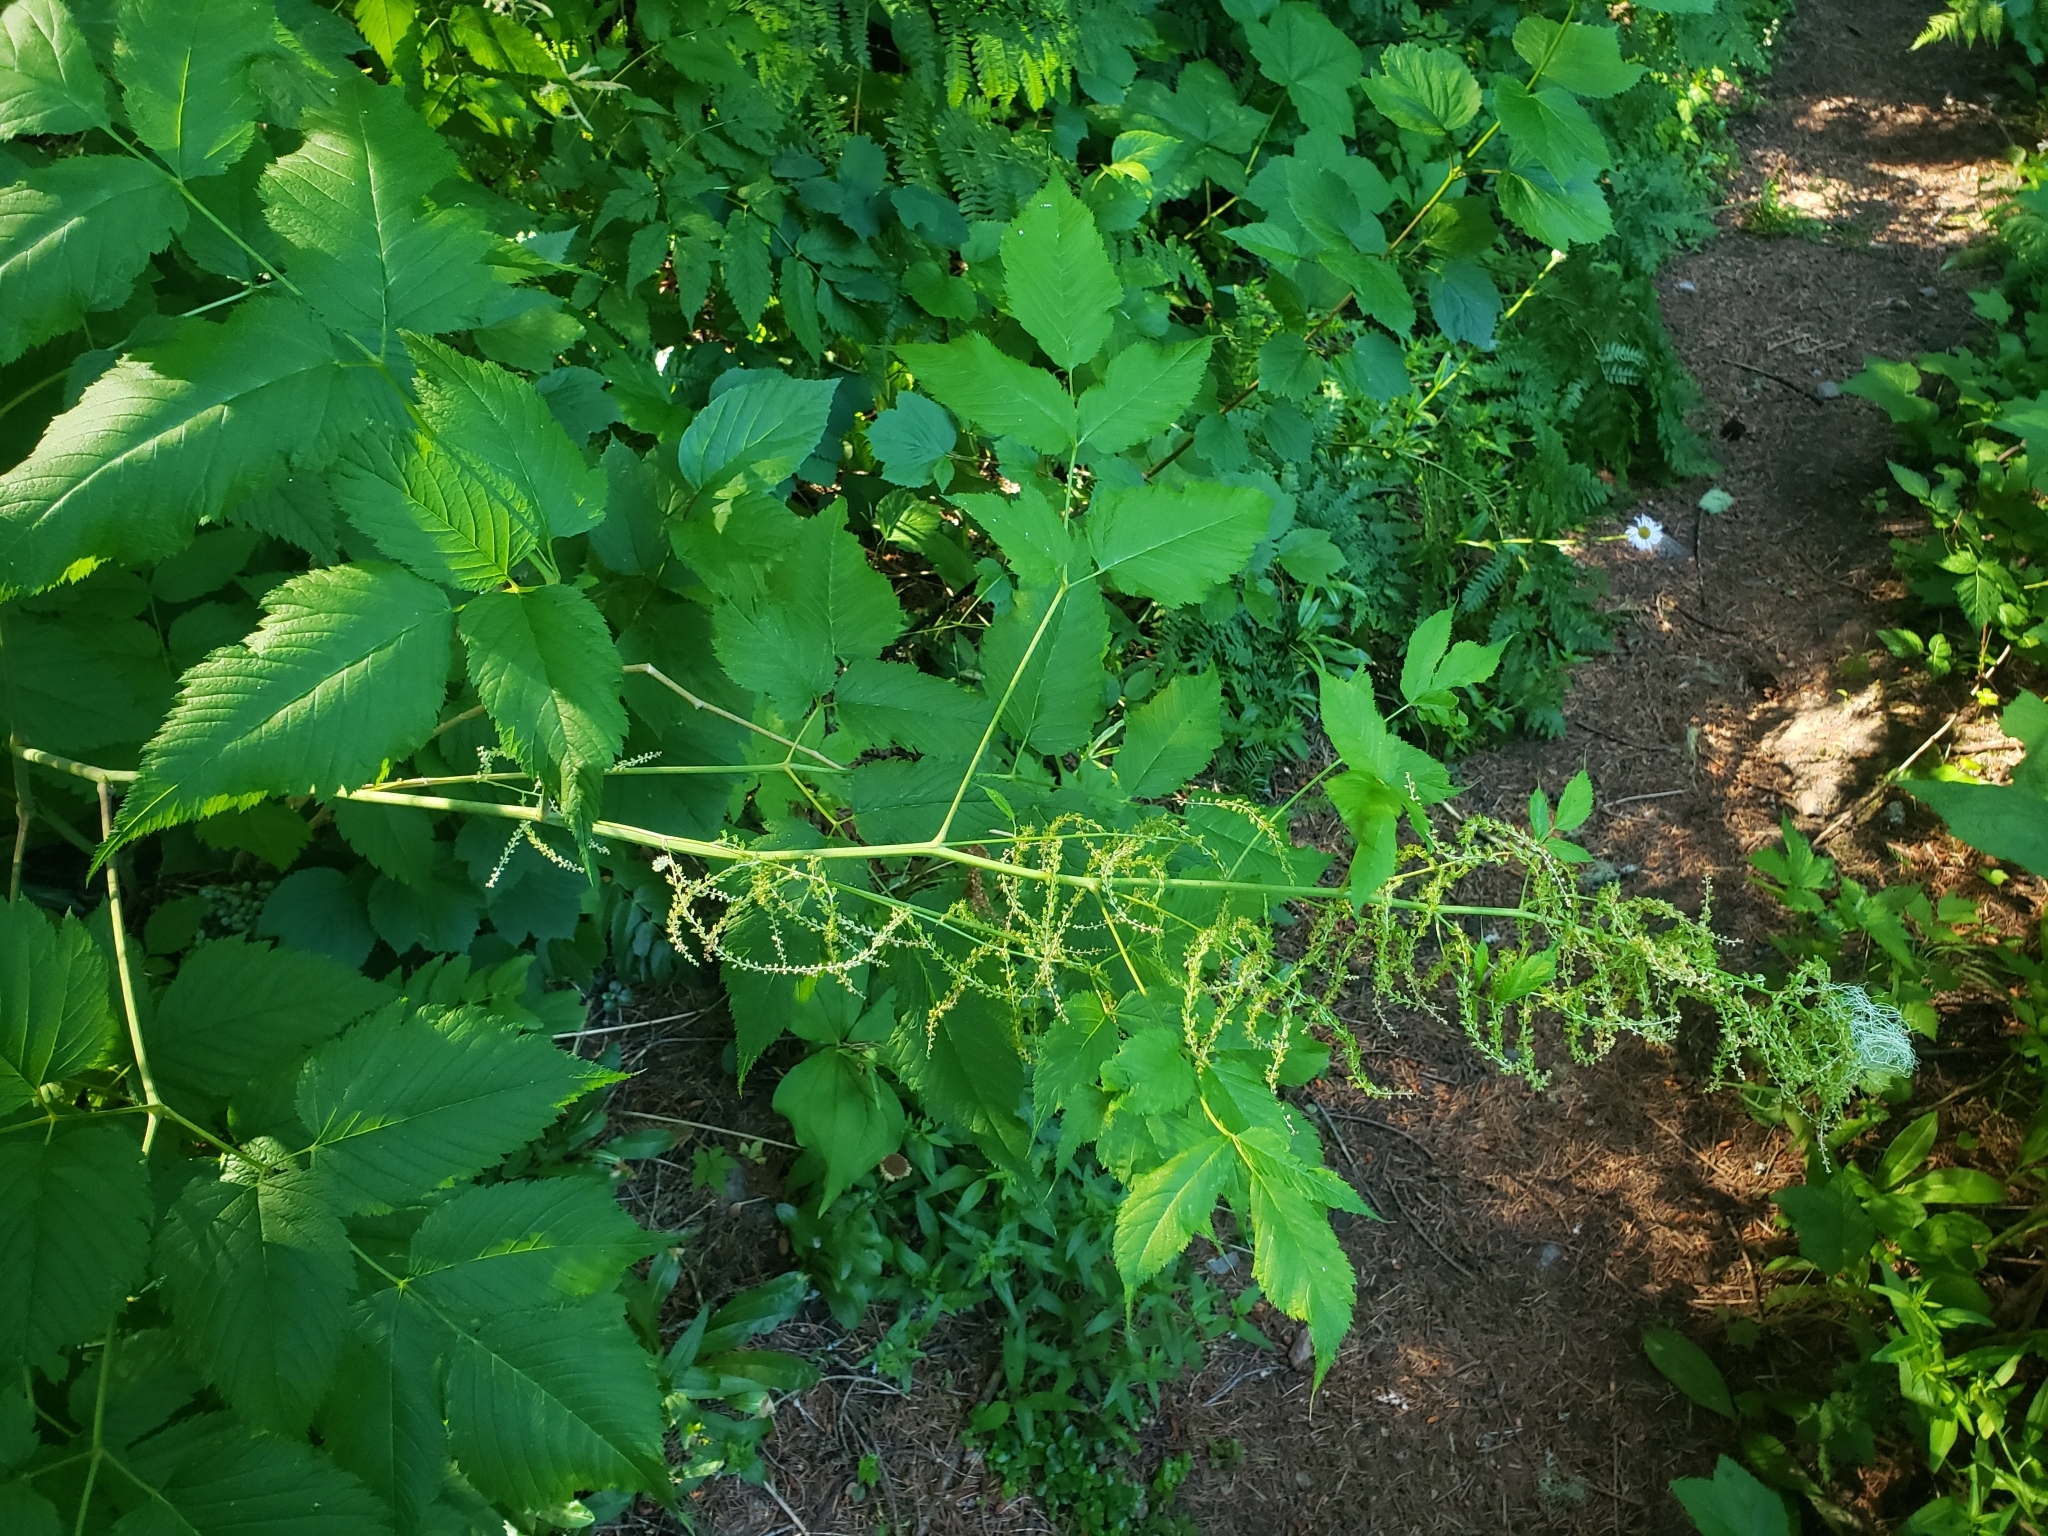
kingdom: Plantae
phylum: Tracheophyta
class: Magnoliopsida
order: Rosales
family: Rosaceae
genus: Aruncus
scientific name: Aruncus dioicus
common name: Buck's-beard
